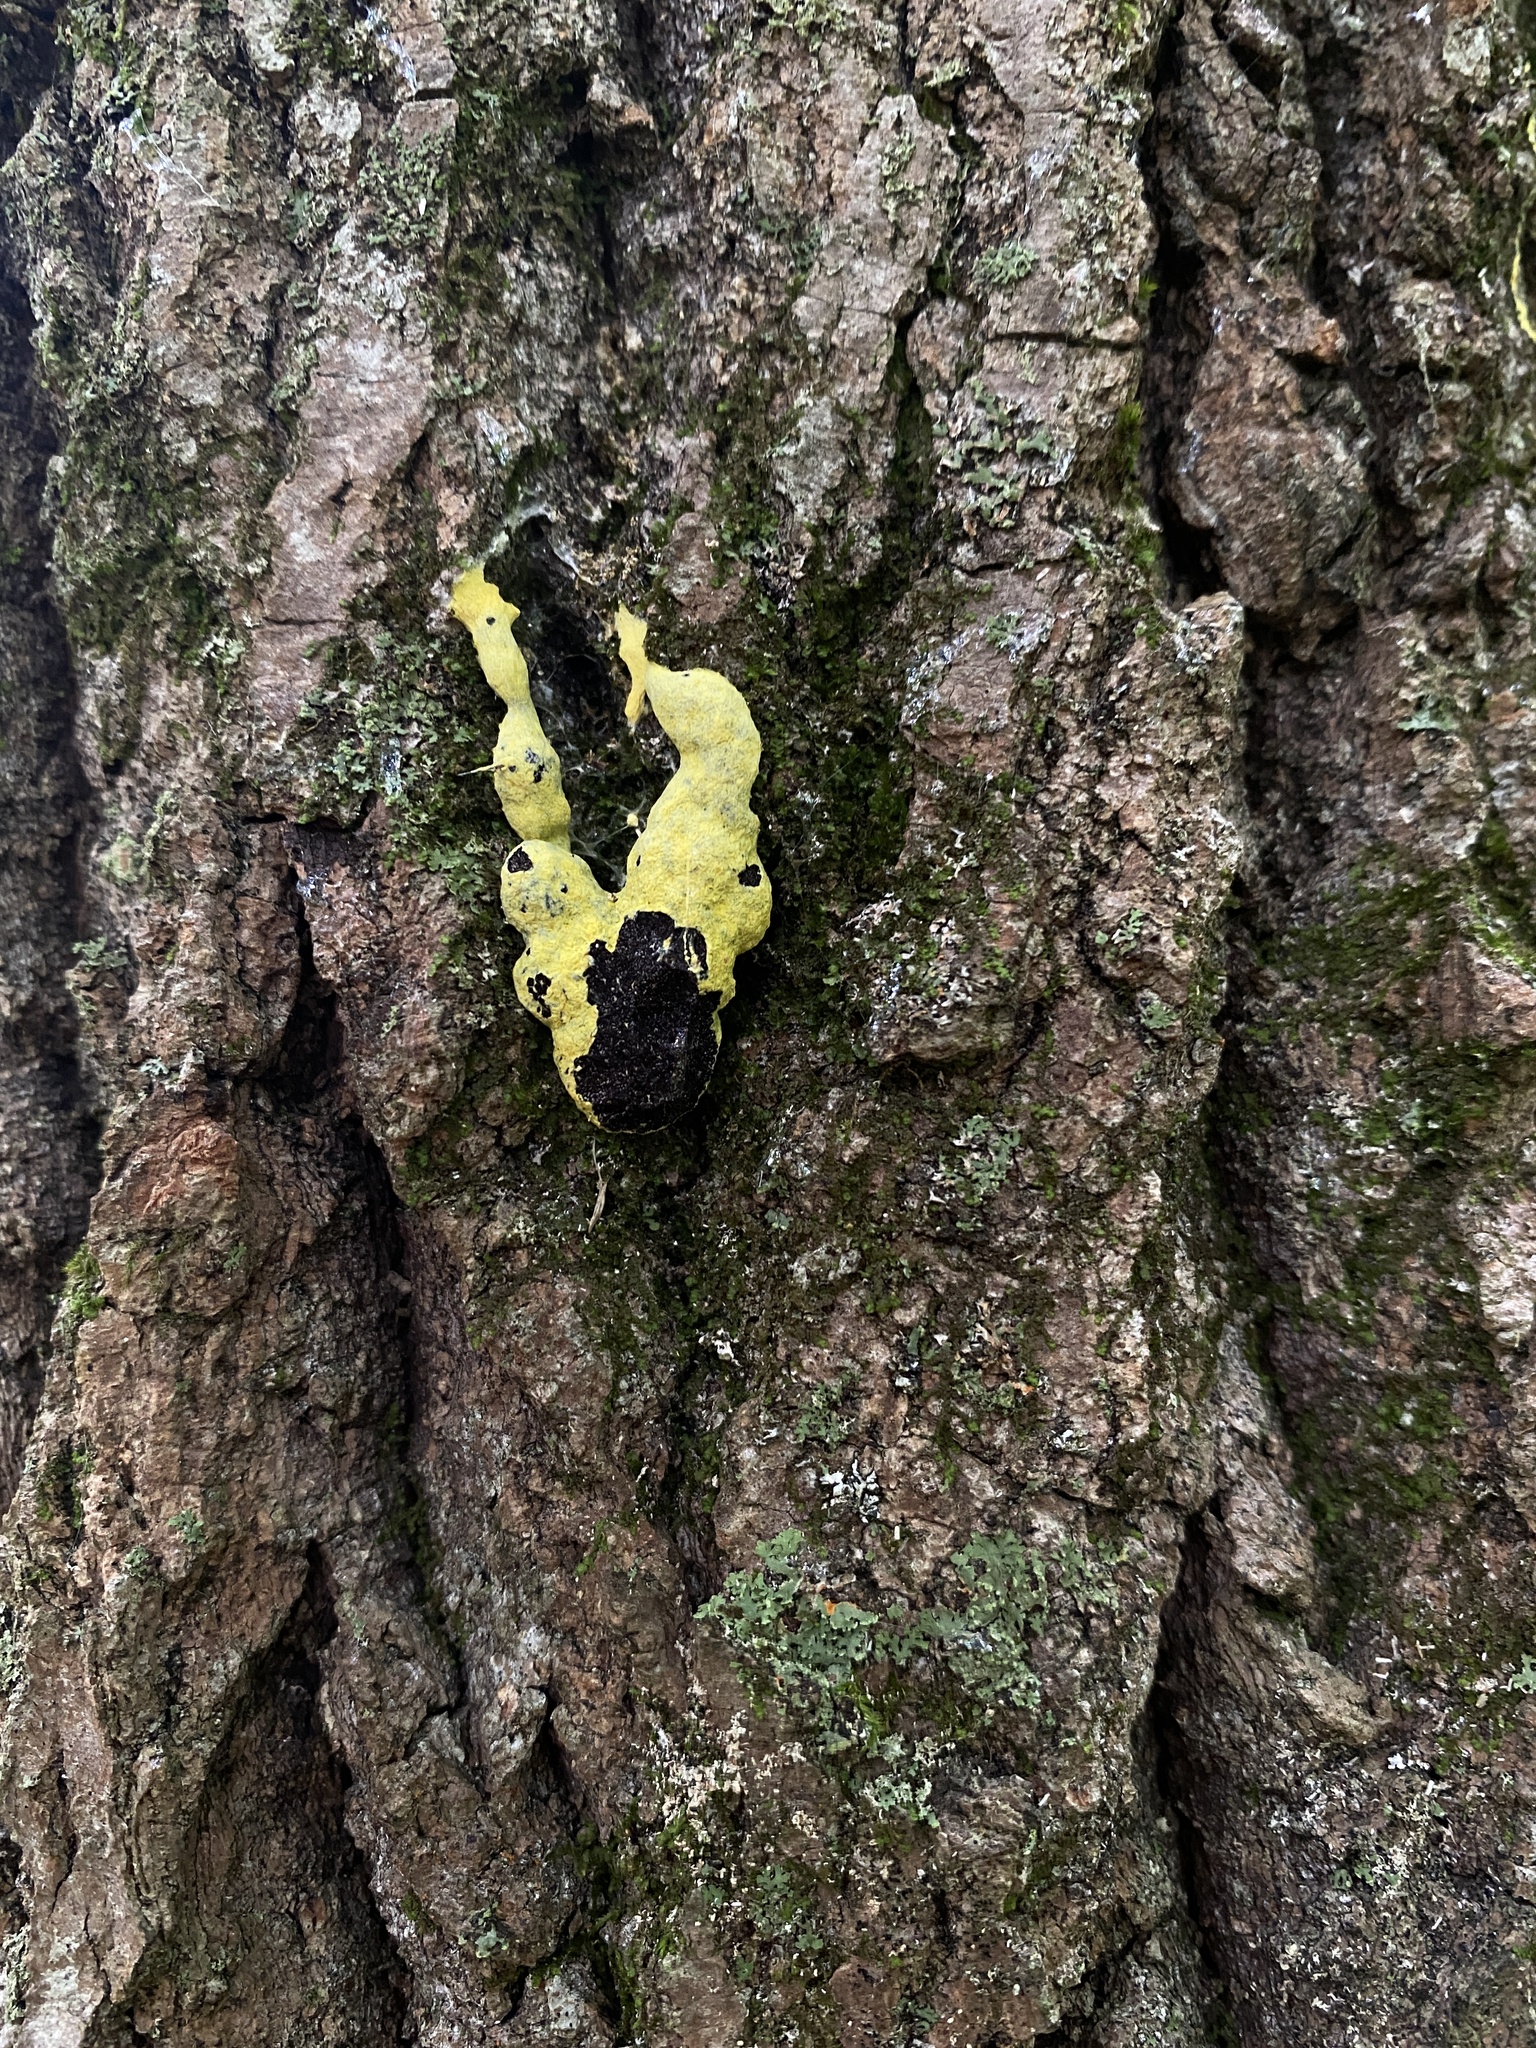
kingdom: Protozoa
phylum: Mycetozoa
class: Myxomycetes
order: Physarales
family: Physaraceae
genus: Fuligo
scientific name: Fuligo septica
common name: Dog vomit slime mold
